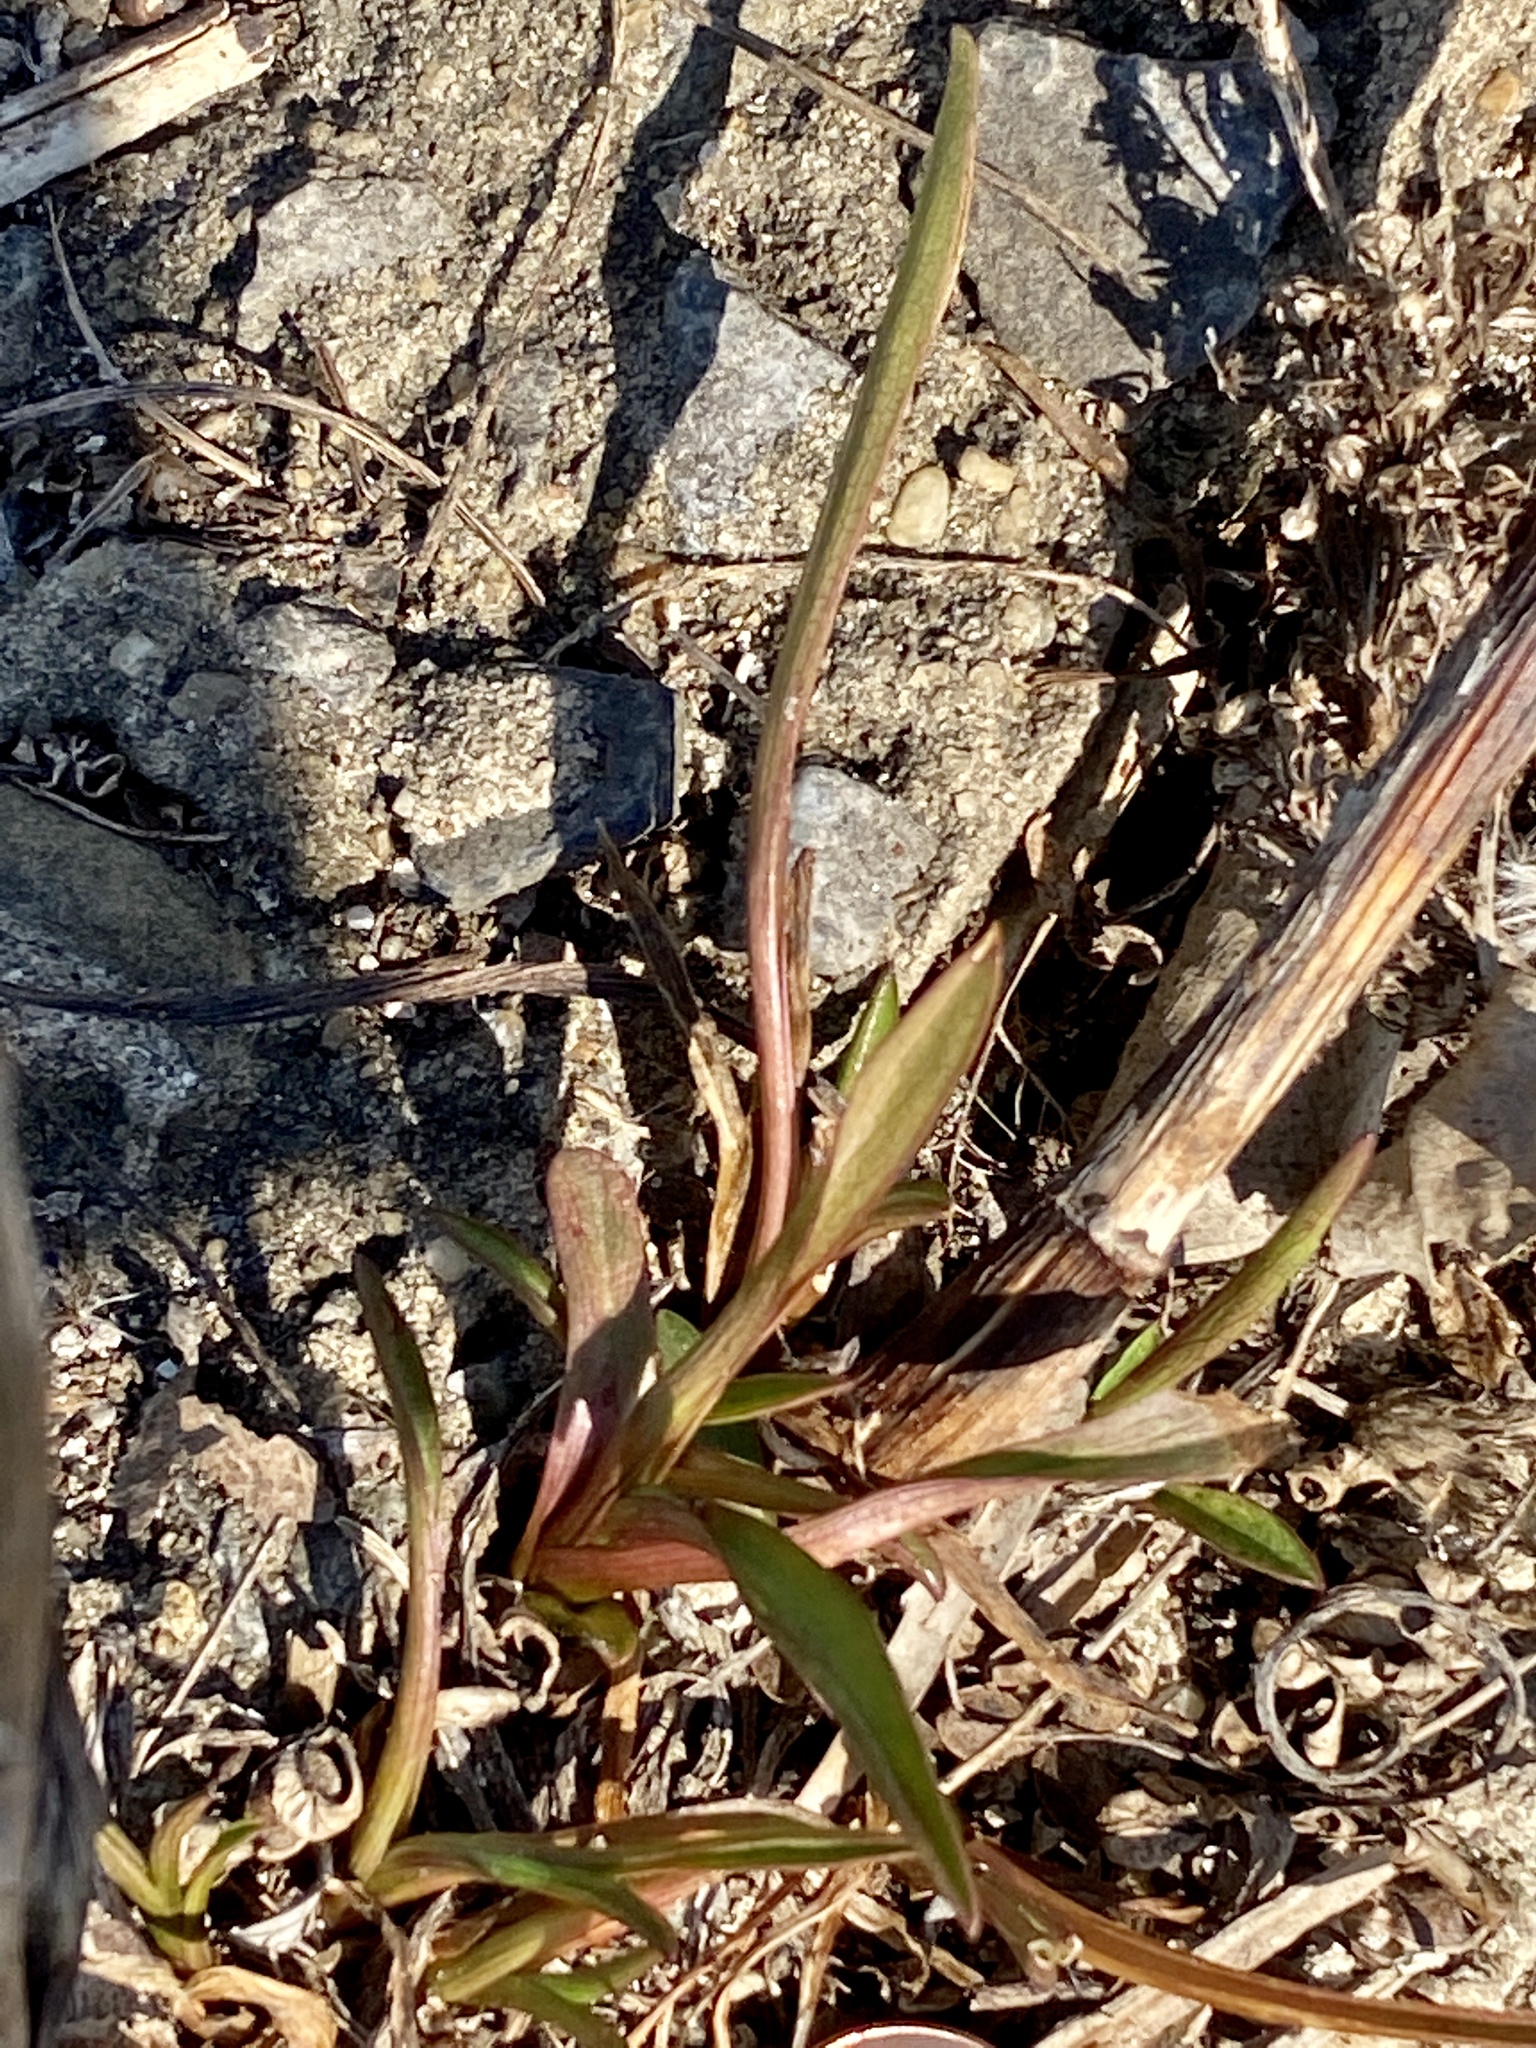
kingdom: Plantae
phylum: Tracheophyta
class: Magnoliopsida
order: Asterales
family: Asteraceae
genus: Solidago
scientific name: Solidago sempervirens
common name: Salt-marsh goldenrod
